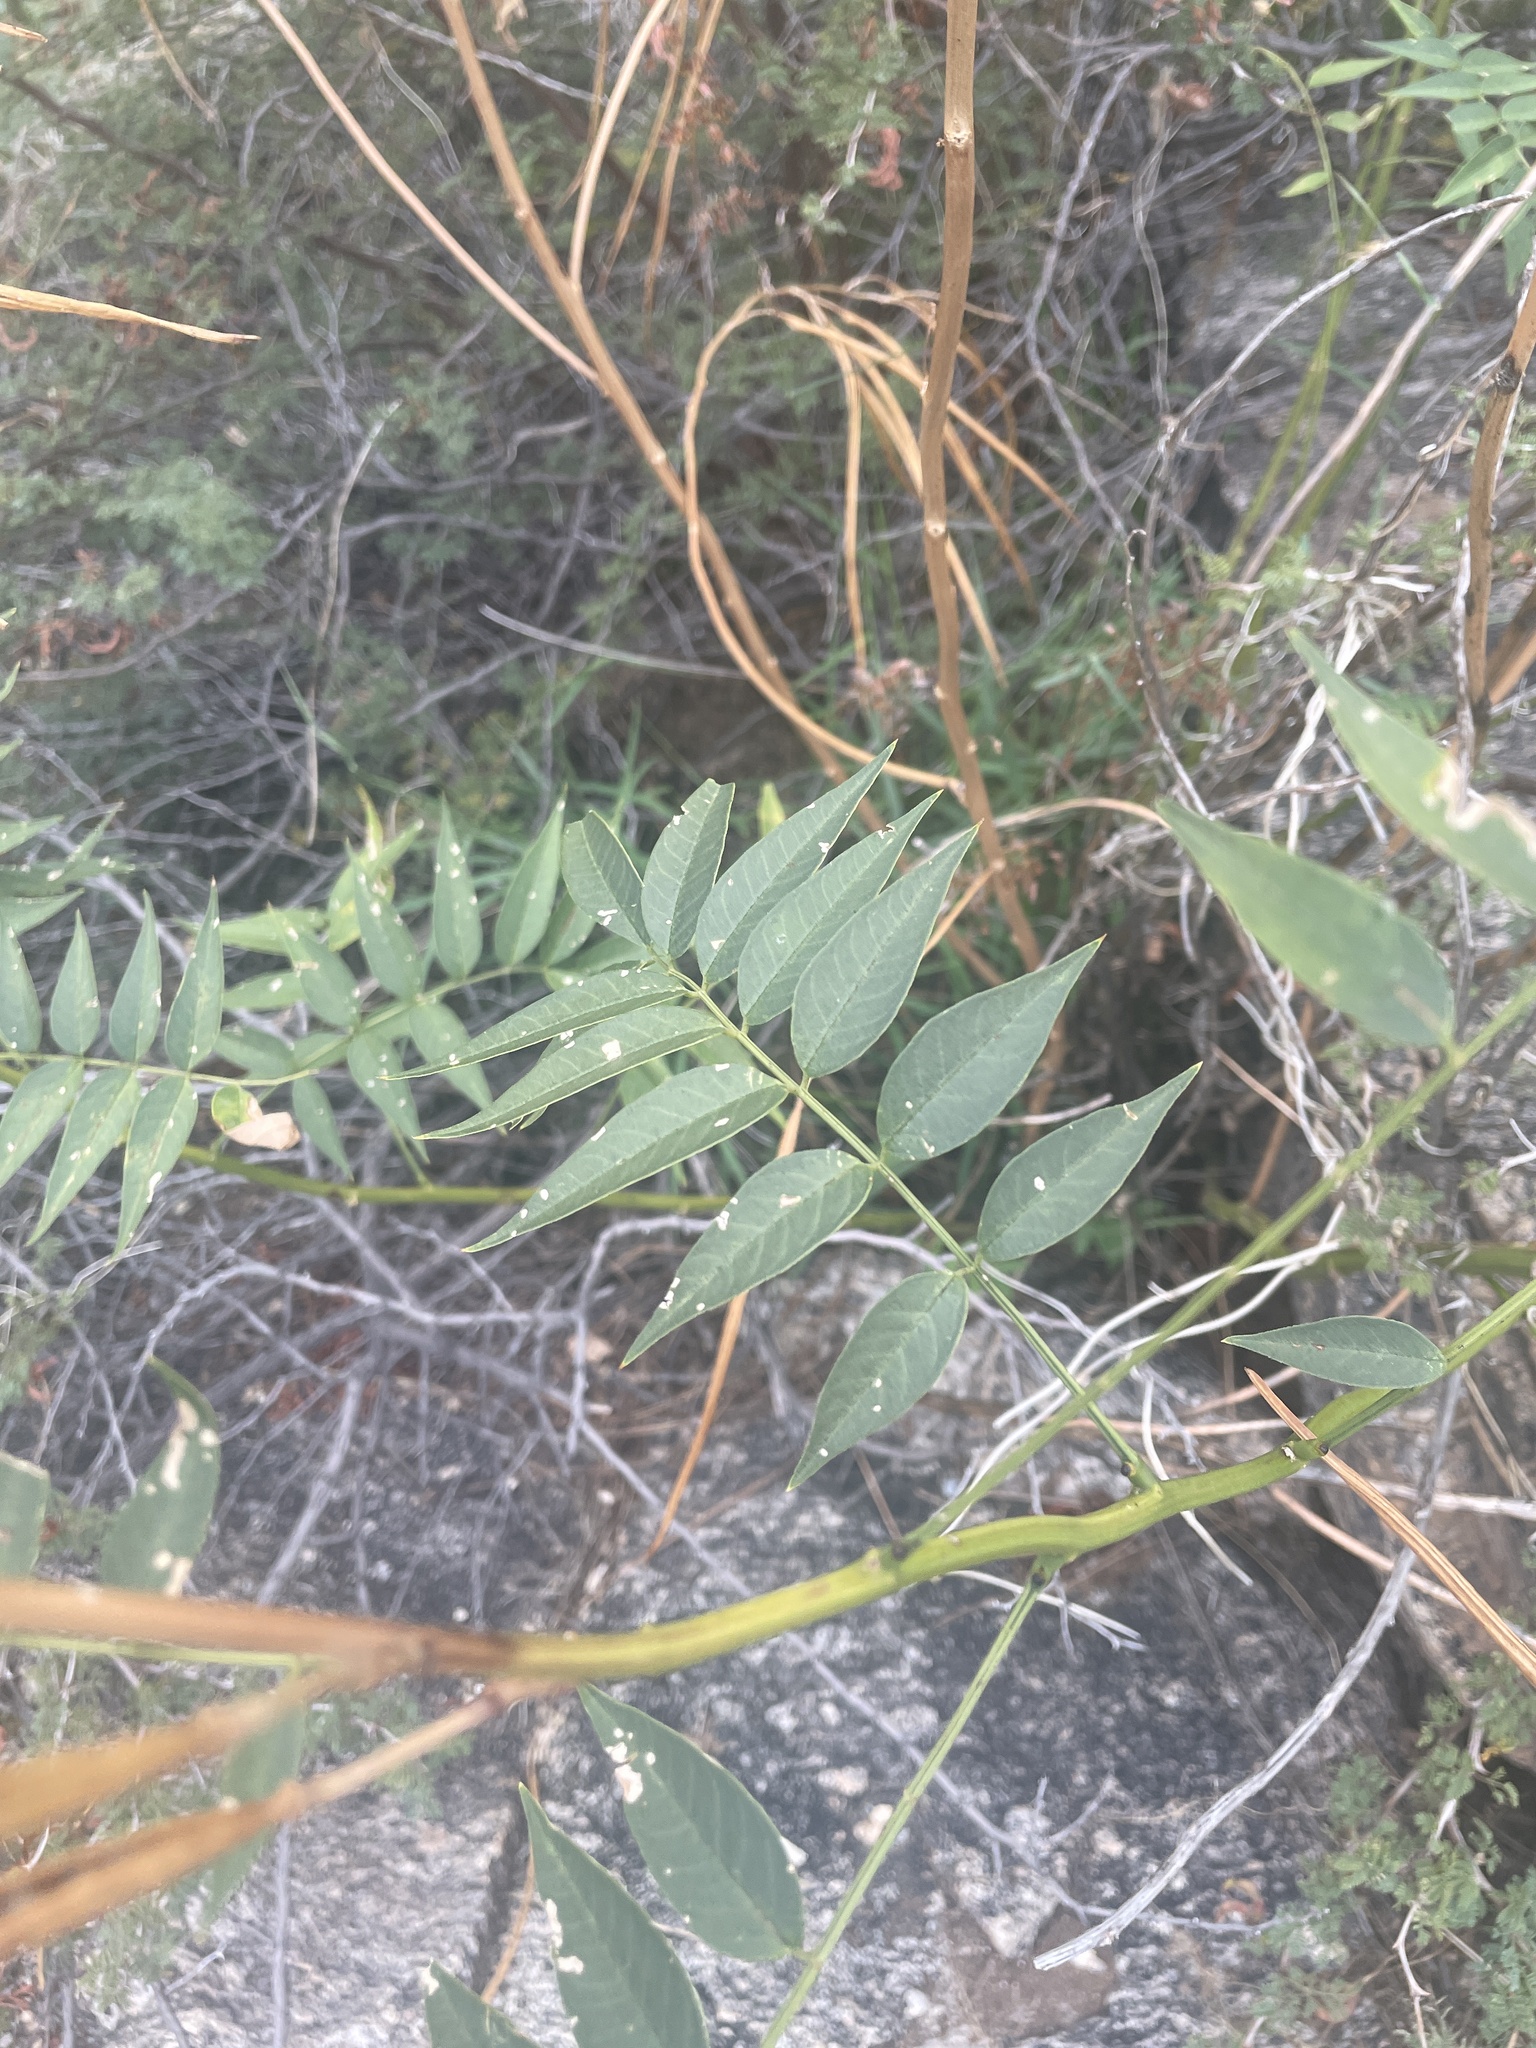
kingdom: Plantae
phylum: Tracheophyta
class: Magnoliopsida
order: Fabales
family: Fabaceae
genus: Senna
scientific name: Senna hirsuta
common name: Woolly senna
